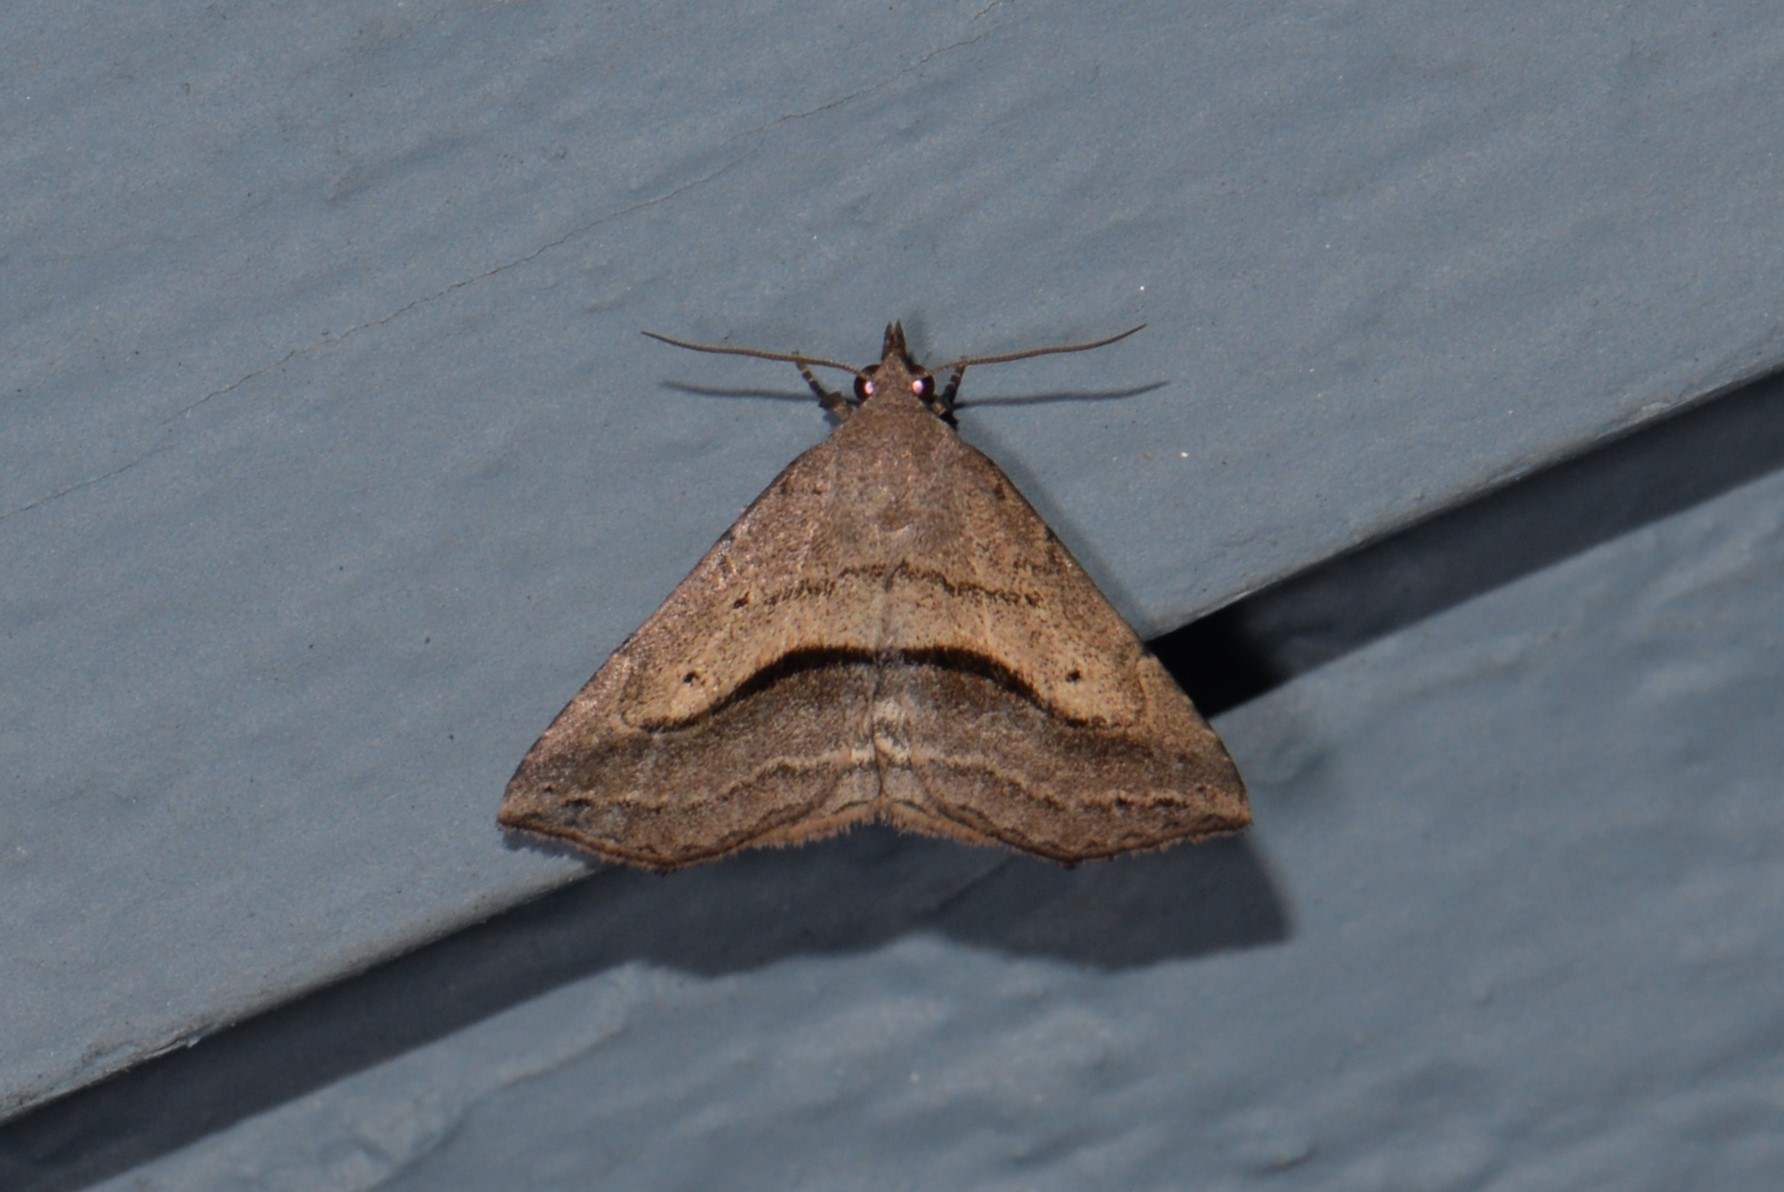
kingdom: Animalia
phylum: Arthropoda
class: Insecta
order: Lepidoptera
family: Erebidae
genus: Spargaloma
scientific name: Spargaloma perditalis
